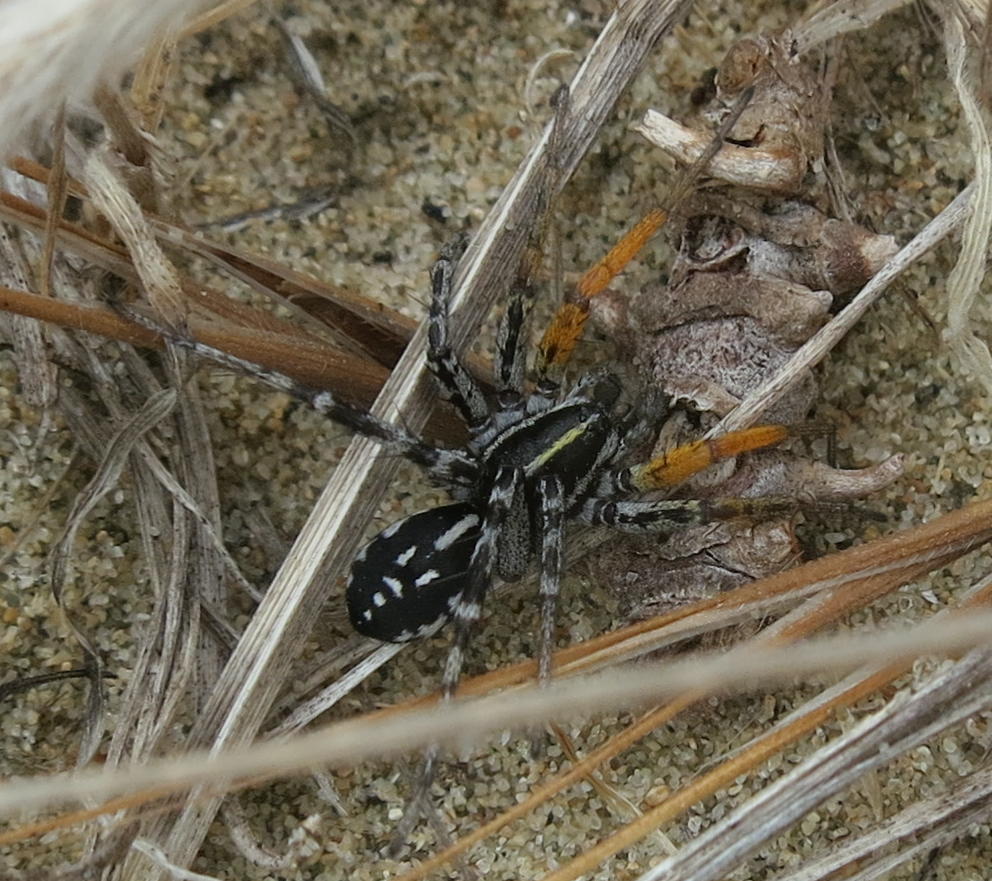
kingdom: Animalia
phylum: Arthropoda
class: Arachnida
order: Araneae
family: Corinnidae
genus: Nyssus
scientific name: Nyssus coloripes
